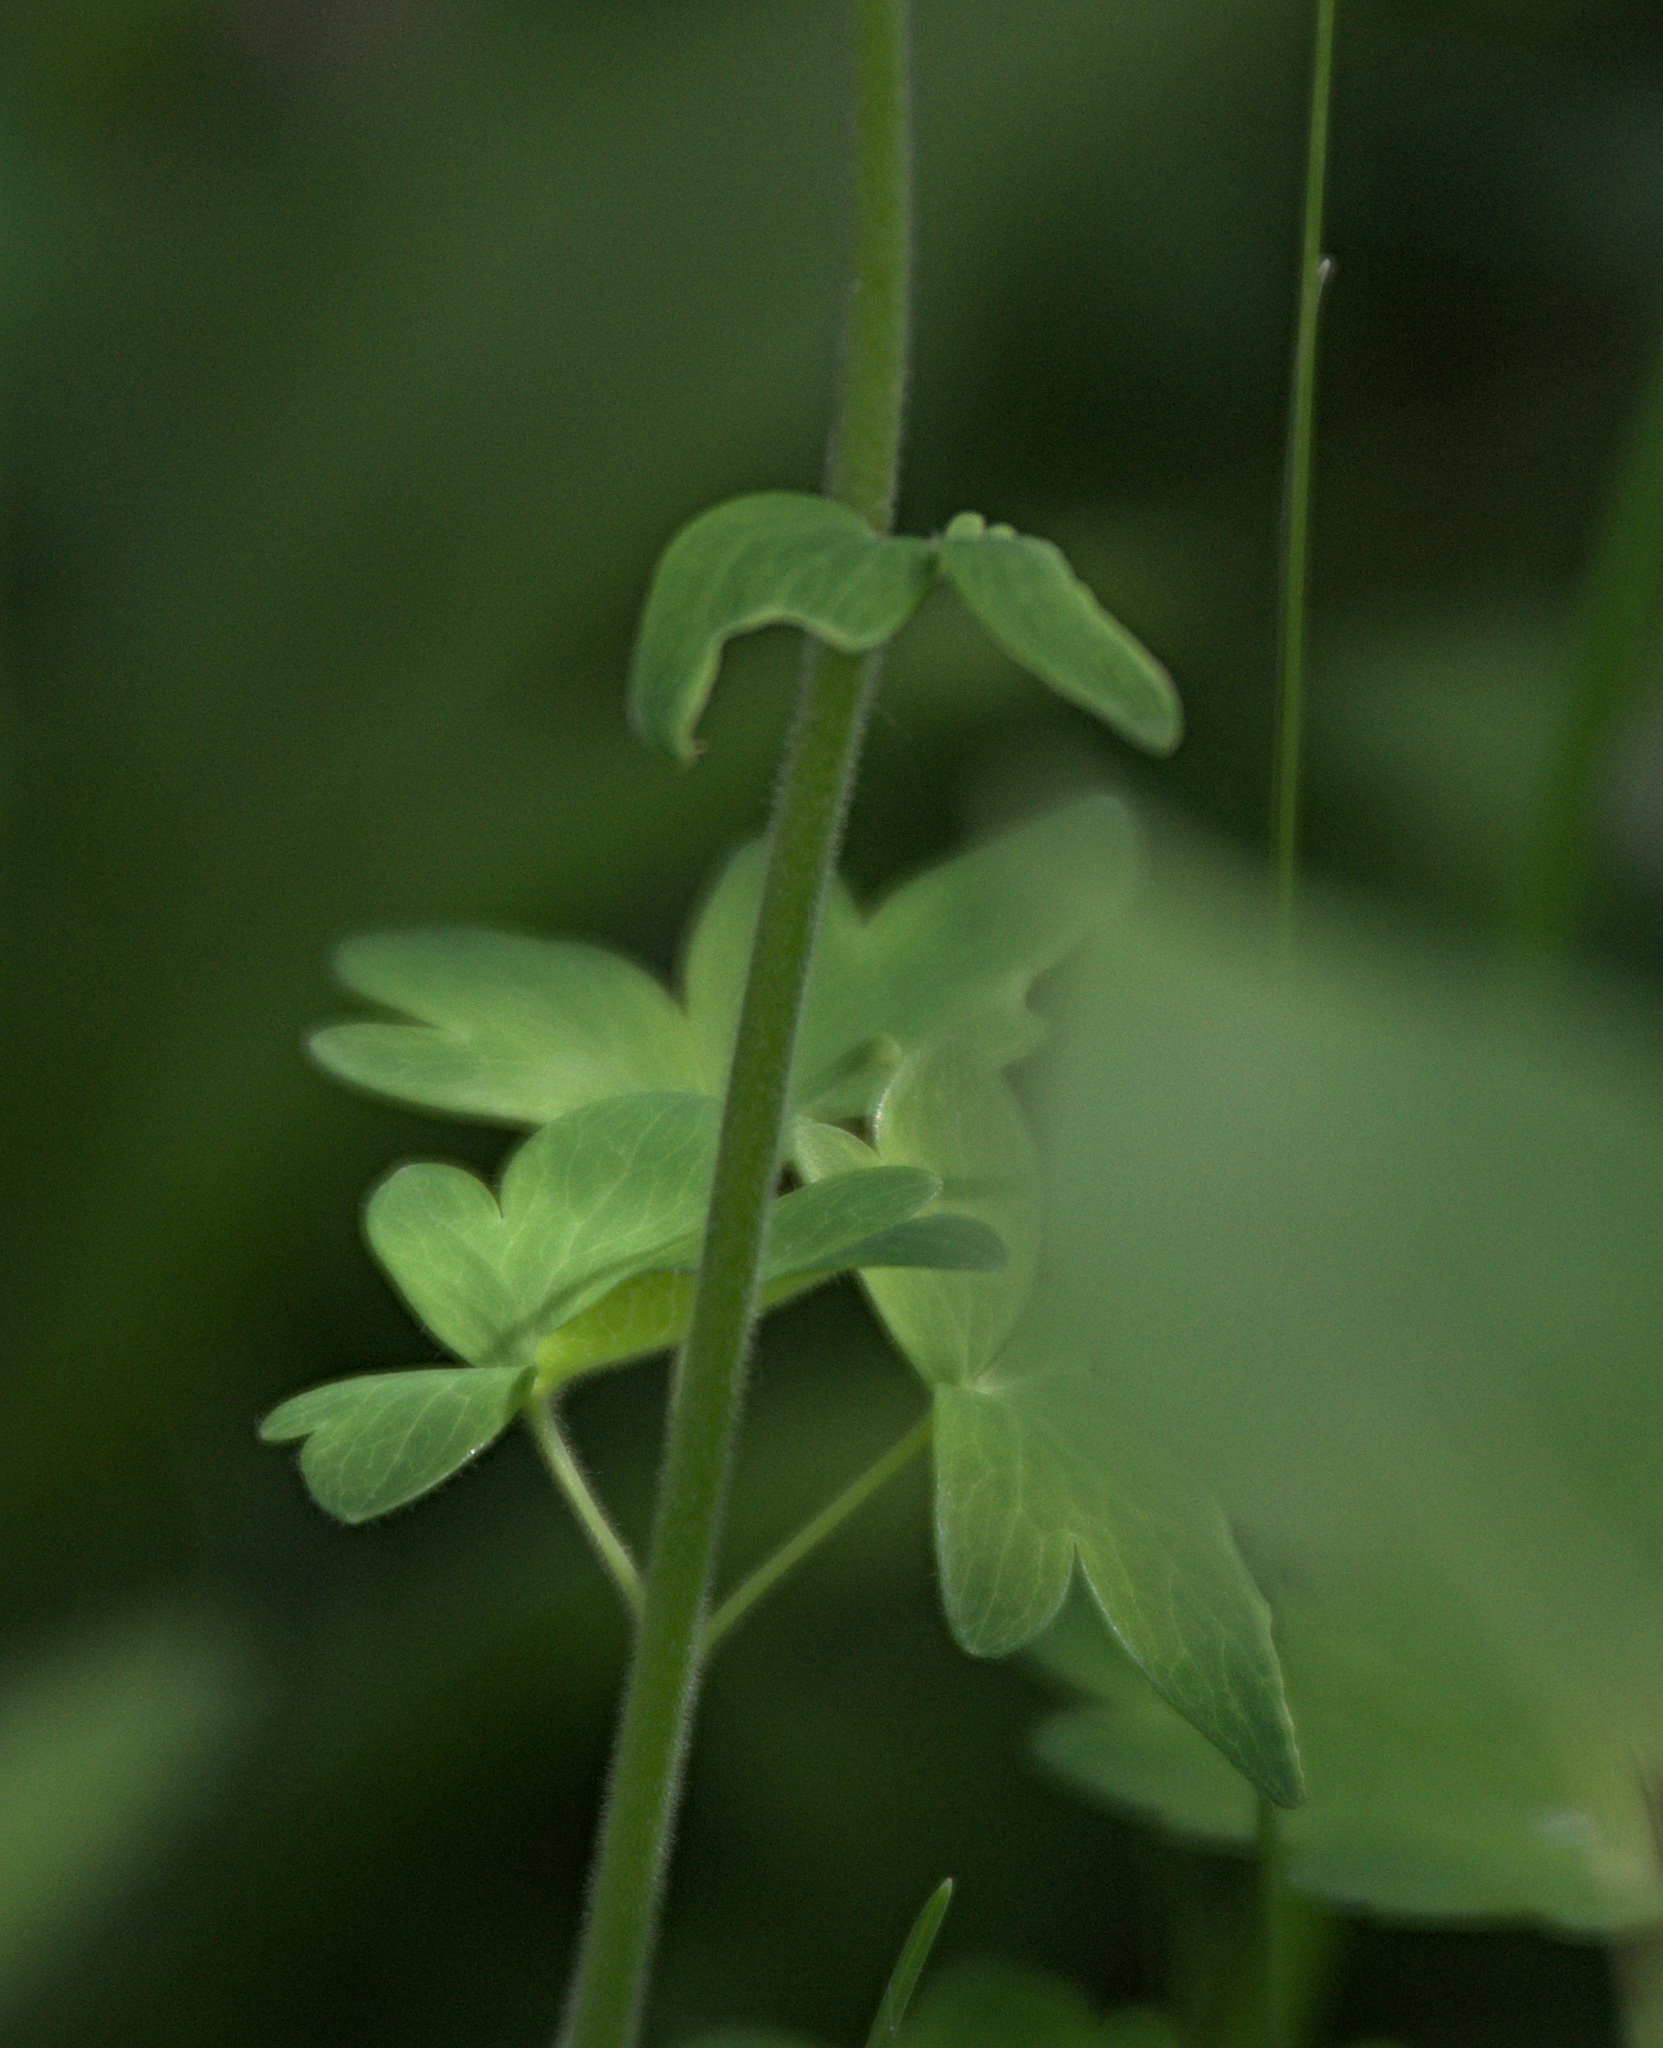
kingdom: Plantae
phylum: Tracheophyta
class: Magnoliopsida
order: Ranunculales
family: Ranunculaceae
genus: Aquilegia
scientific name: Aquilegia vulgaris
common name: Columbine
